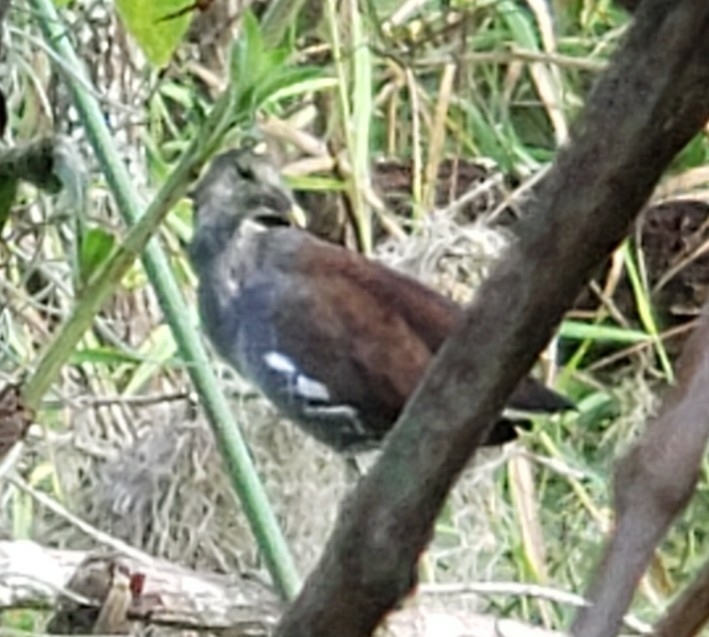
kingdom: Animalia
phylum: Chordata
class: Aves
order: Gruiformes
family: Rallidae
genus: Gallinula
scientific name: Gallinula chloropus
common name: Common moorhen
